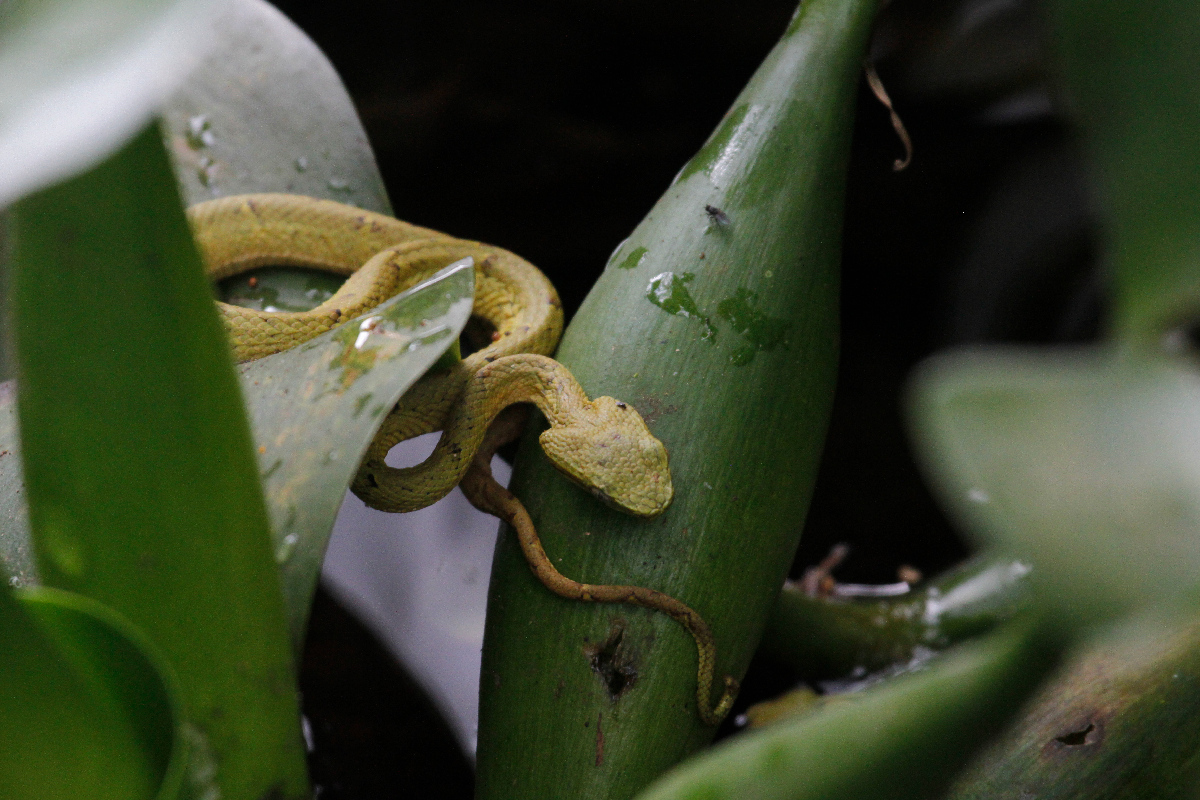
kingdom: Animalia
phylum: Chordata
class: Squamata
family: Viperidae
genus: Bothriechis
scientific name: Bothriechis lateralis
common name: Coffee palm viper
